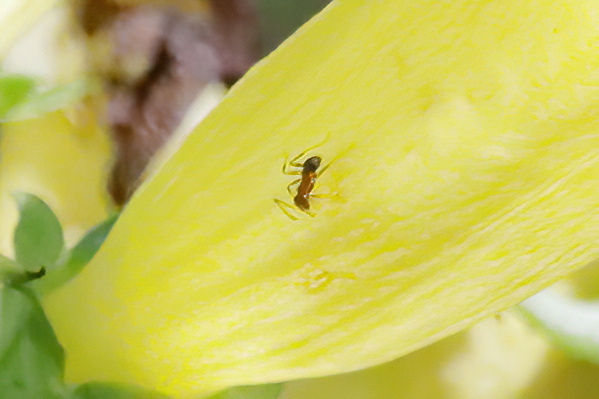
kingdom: Animalia
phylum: Arthropoda
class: Insecta
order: Hymenoptera
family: Formicidae
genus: Pheidole
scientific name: Pheidole dentata
